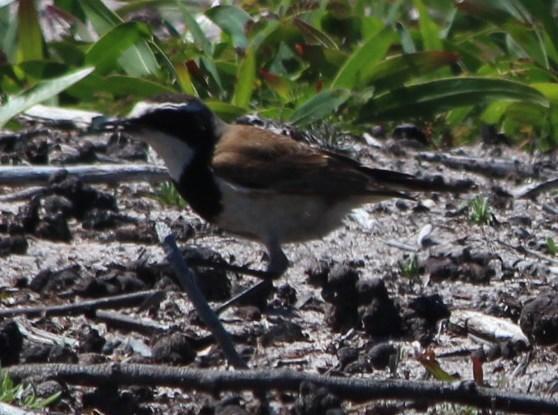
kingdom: Animalia
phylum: Chordata
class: Aves
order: Passeriformes
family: Muscicapidae
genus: Oenanthe
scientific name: Oenanthe pileata
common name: Capped wheatear
